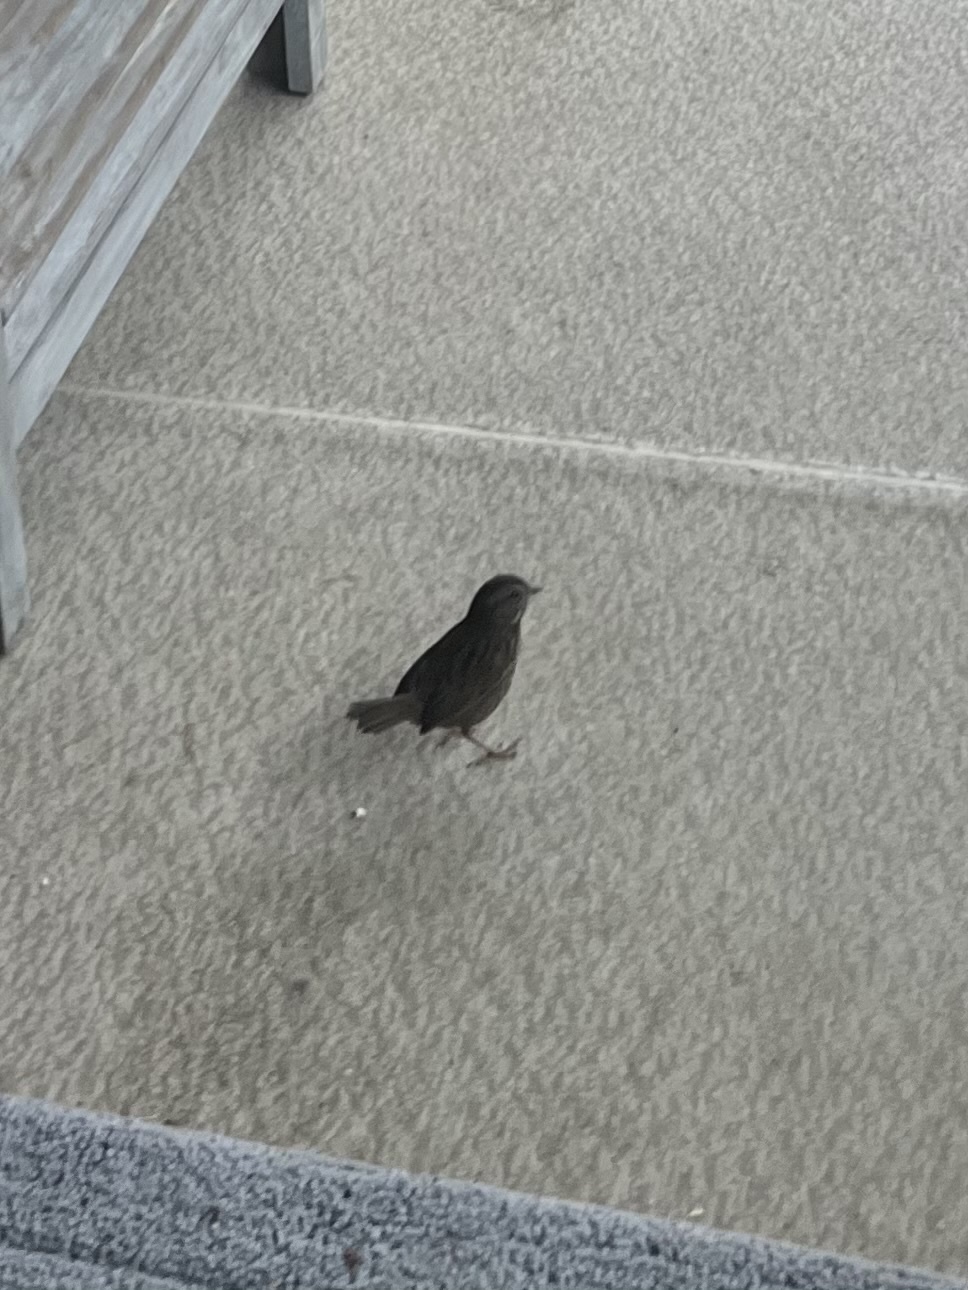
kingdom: Animalia
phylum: Chordata
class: Aves
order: Passeriformes
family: Passerellidae
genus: Melospiza
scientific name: Melospiza melodia
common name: Song sparrow
